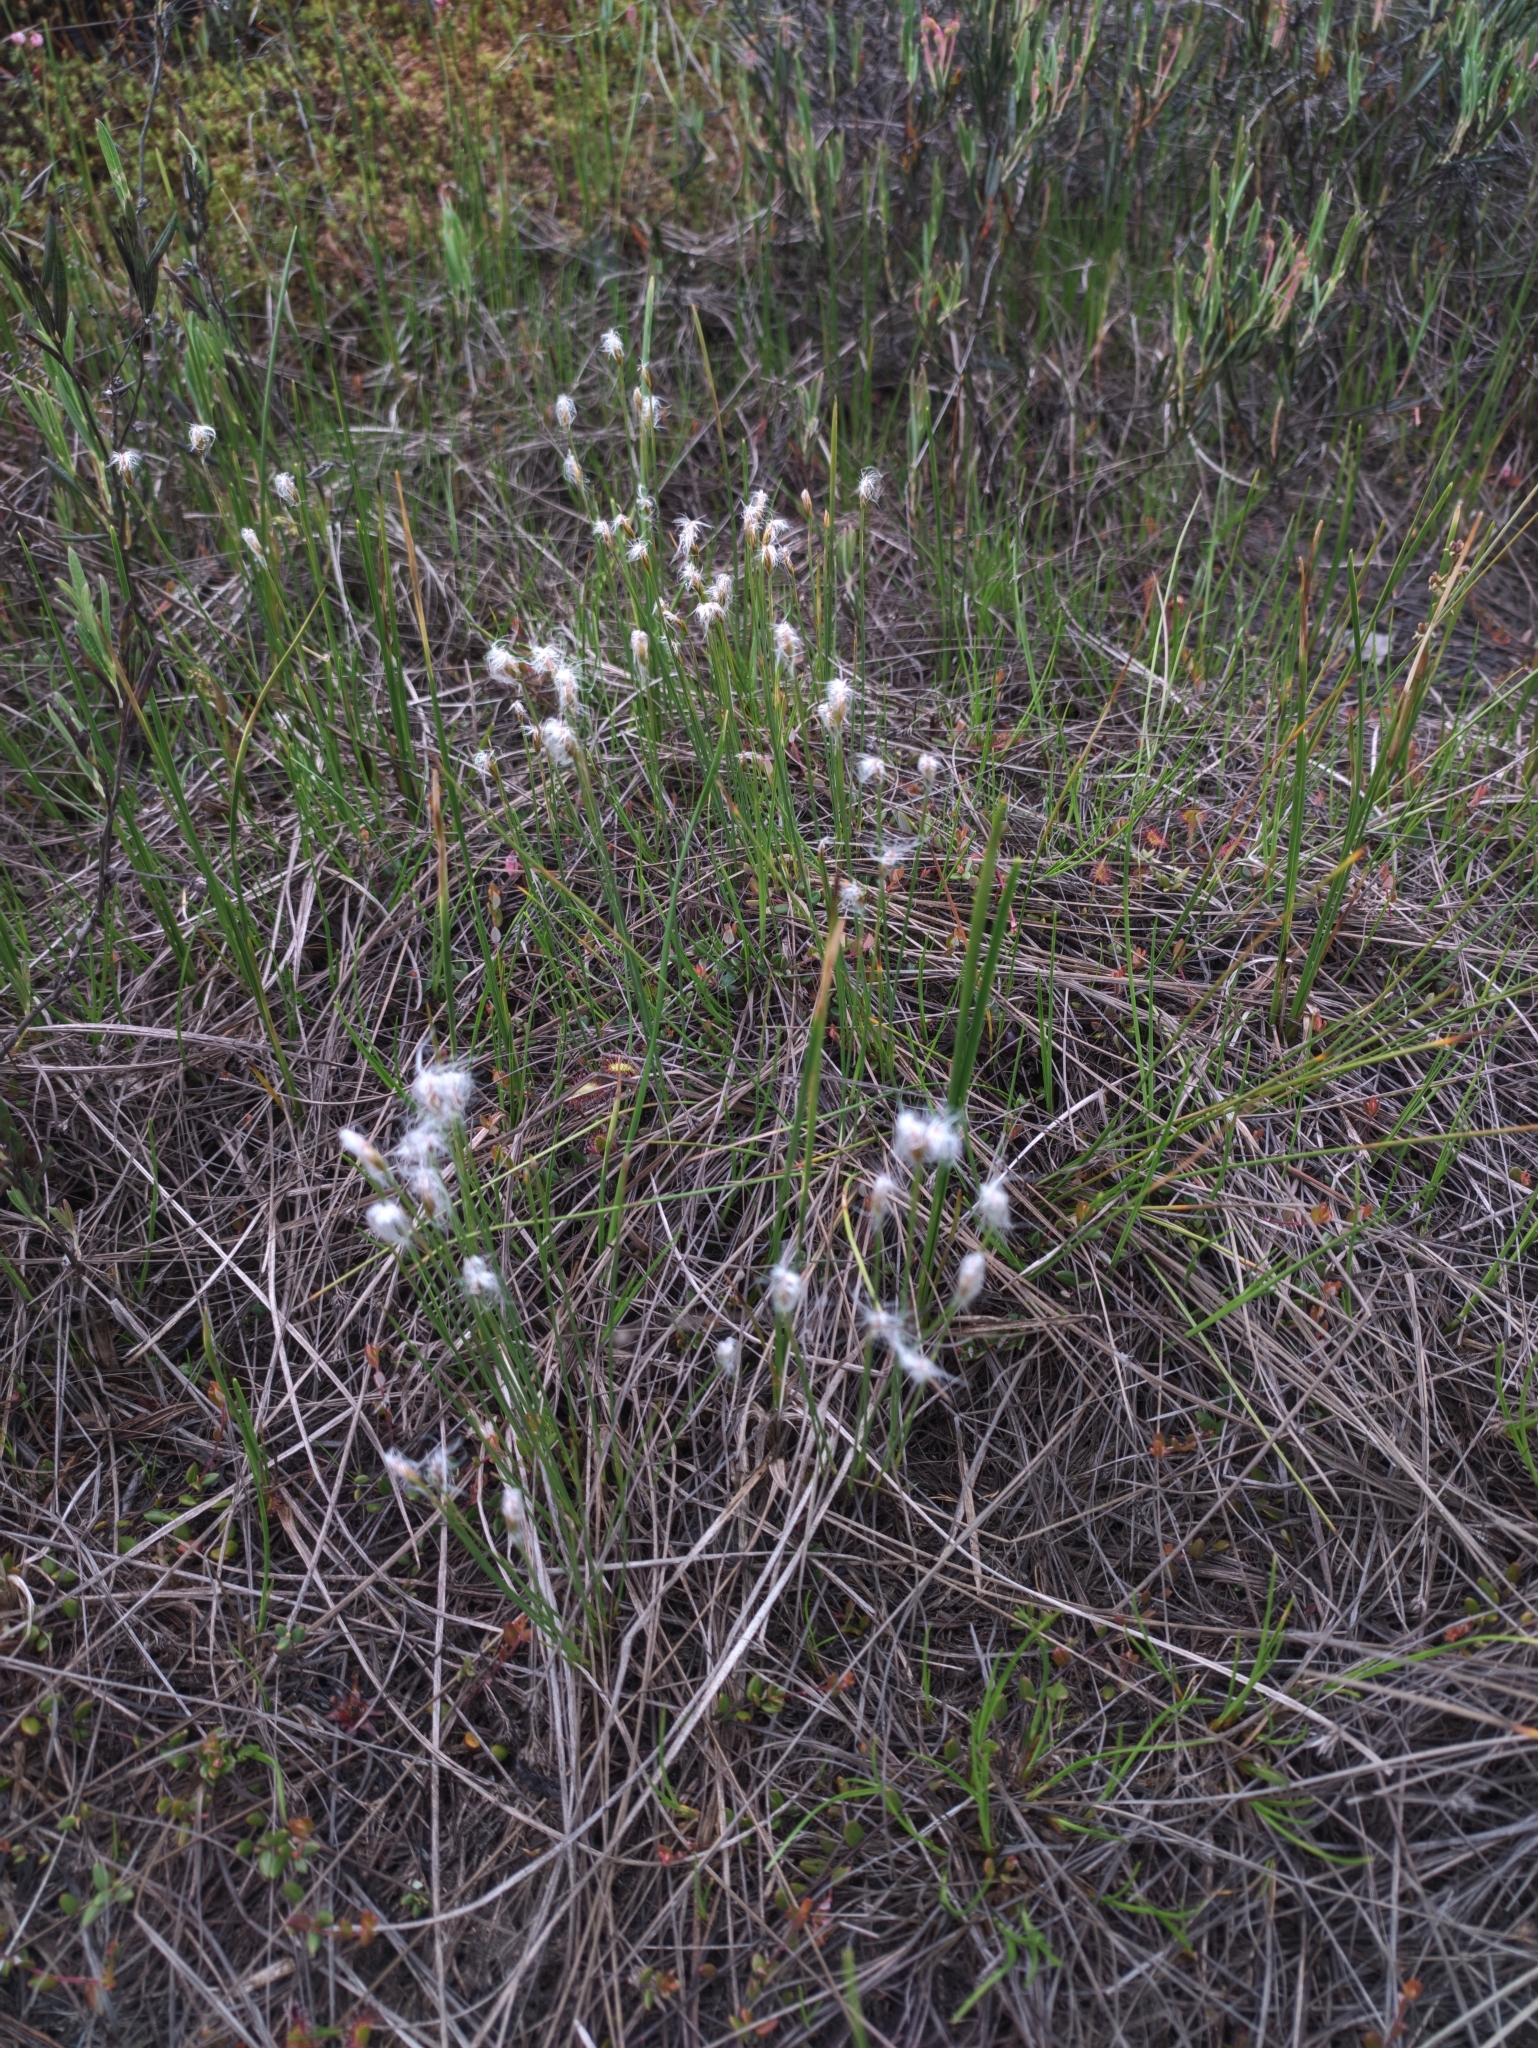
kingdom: Plantae
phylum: Tracheophyta
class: Liliopsida
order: Poales
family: Cyperaceae
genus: Trichophorum
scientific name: Trichophorum alpinum
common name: Alpine bulrush
